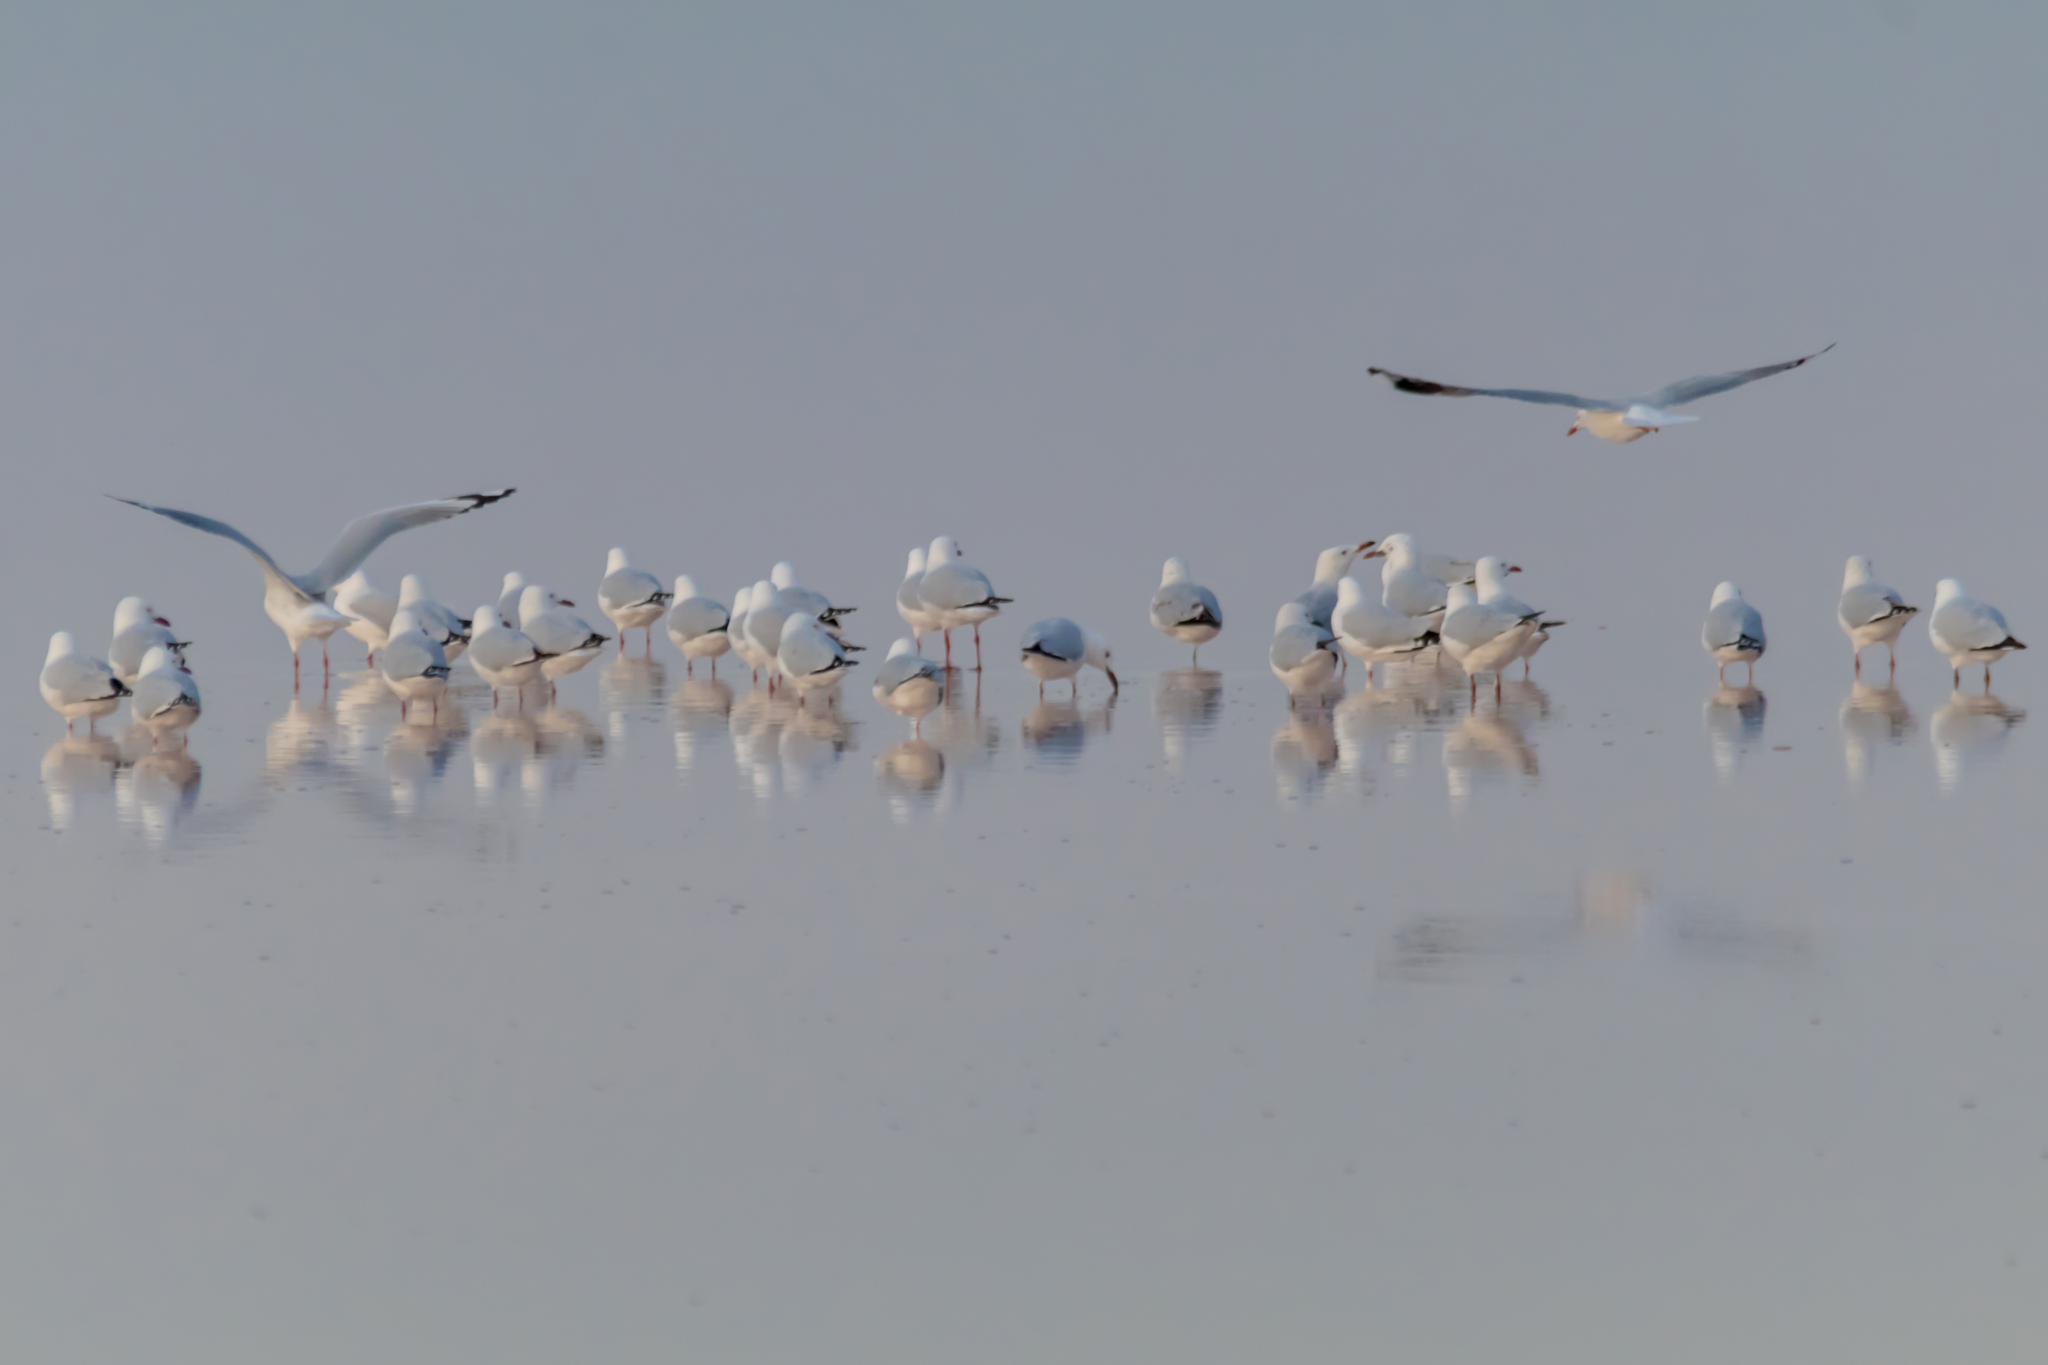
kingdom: Animalia
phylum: Chordata
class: Aves
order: Charadriiformes
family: Laridae
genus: Chroicocephalus
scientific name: Chroicocephalus novaehollandiae
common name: Silver gull
